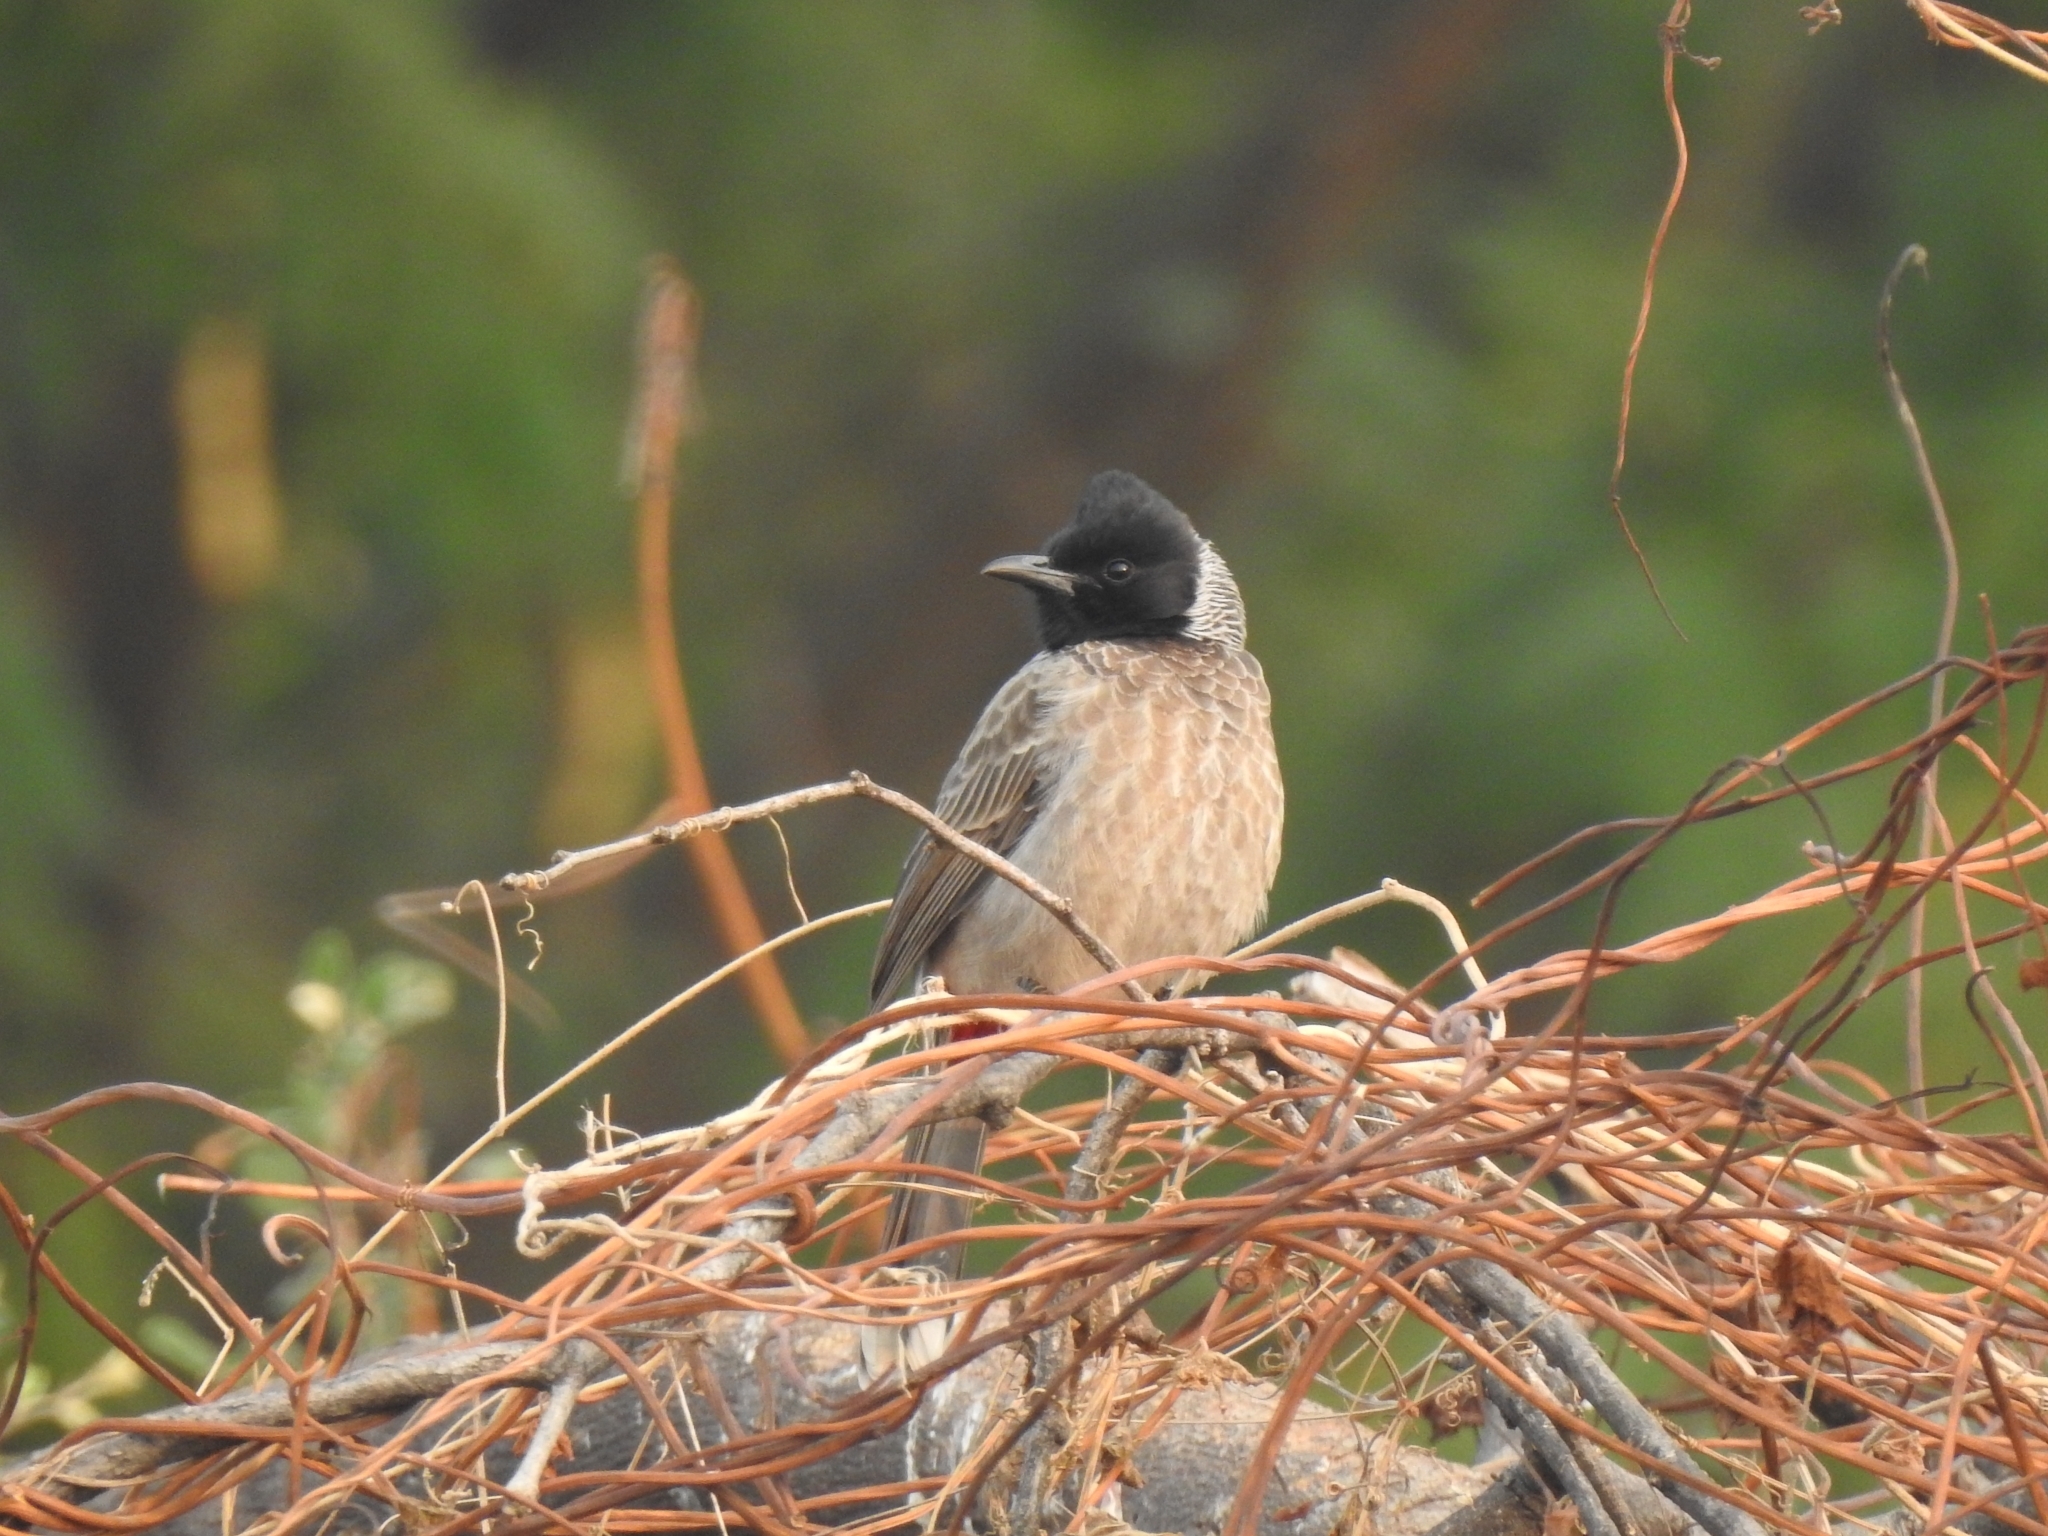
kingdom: Animalia
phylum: Chordata
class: Aves
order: Passeriformes
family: Pycnonotidae
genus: Pycnonotus
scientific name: Pycnonotus cafer
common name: Red-vented bulbul
